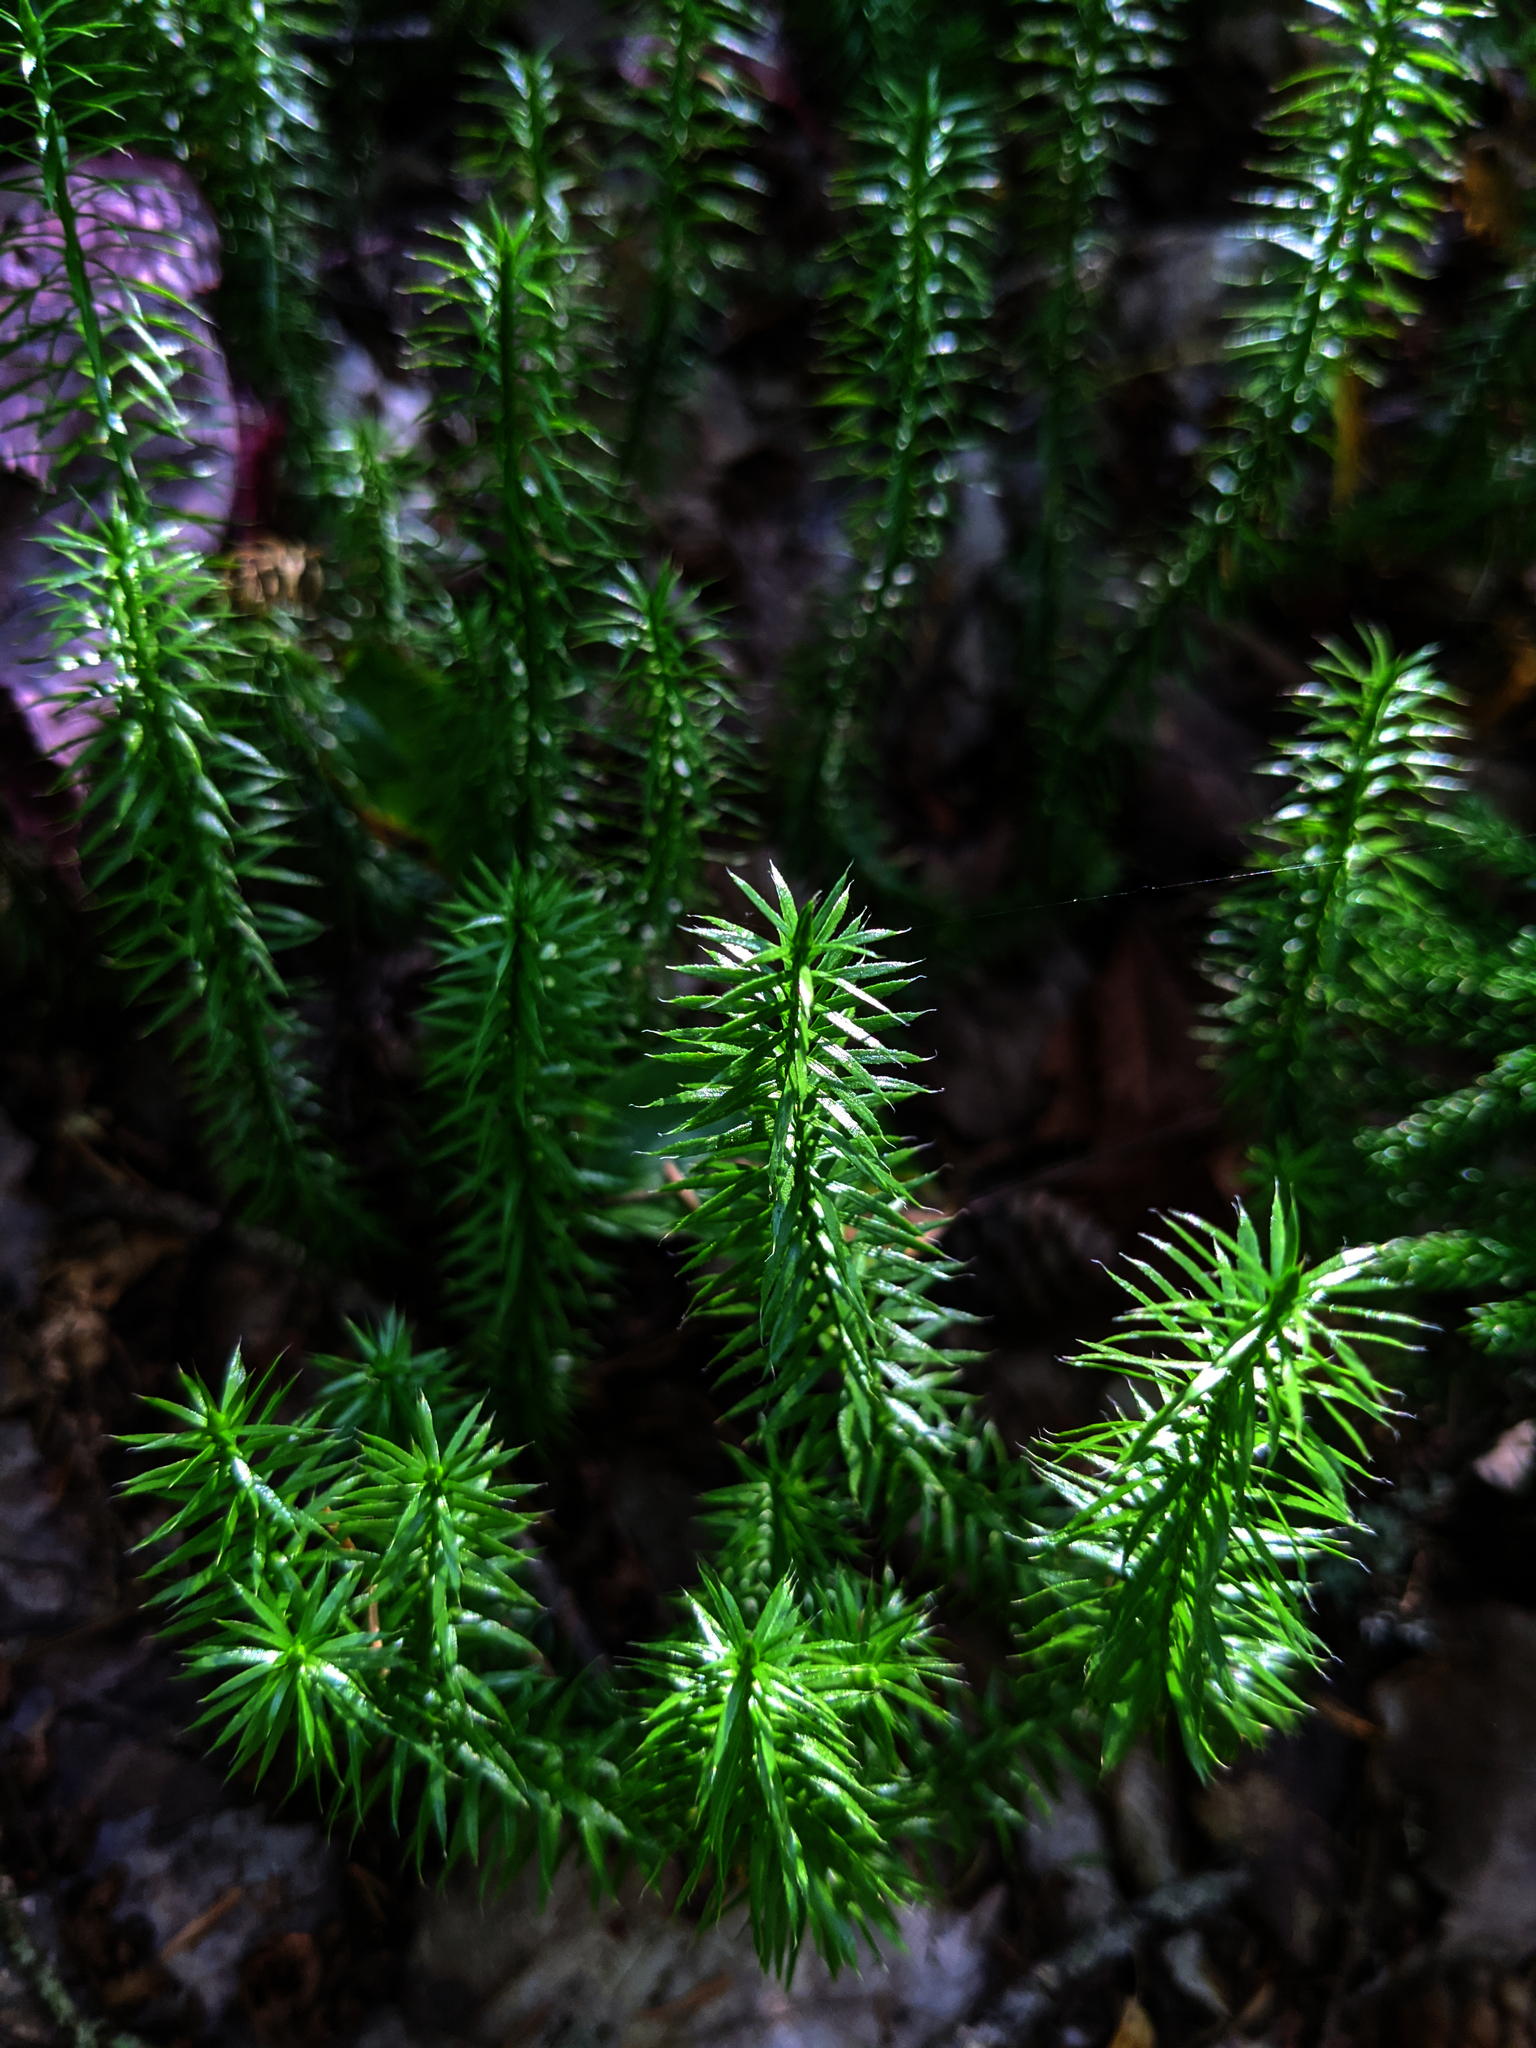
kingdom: Plantae
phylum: Tracheophyta
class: Lycopodiopsida
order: Lycopodiales
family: Lycopodiaceae
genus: Spinulum
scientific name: Spinulum annotinum
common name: Interrupted club-moss
